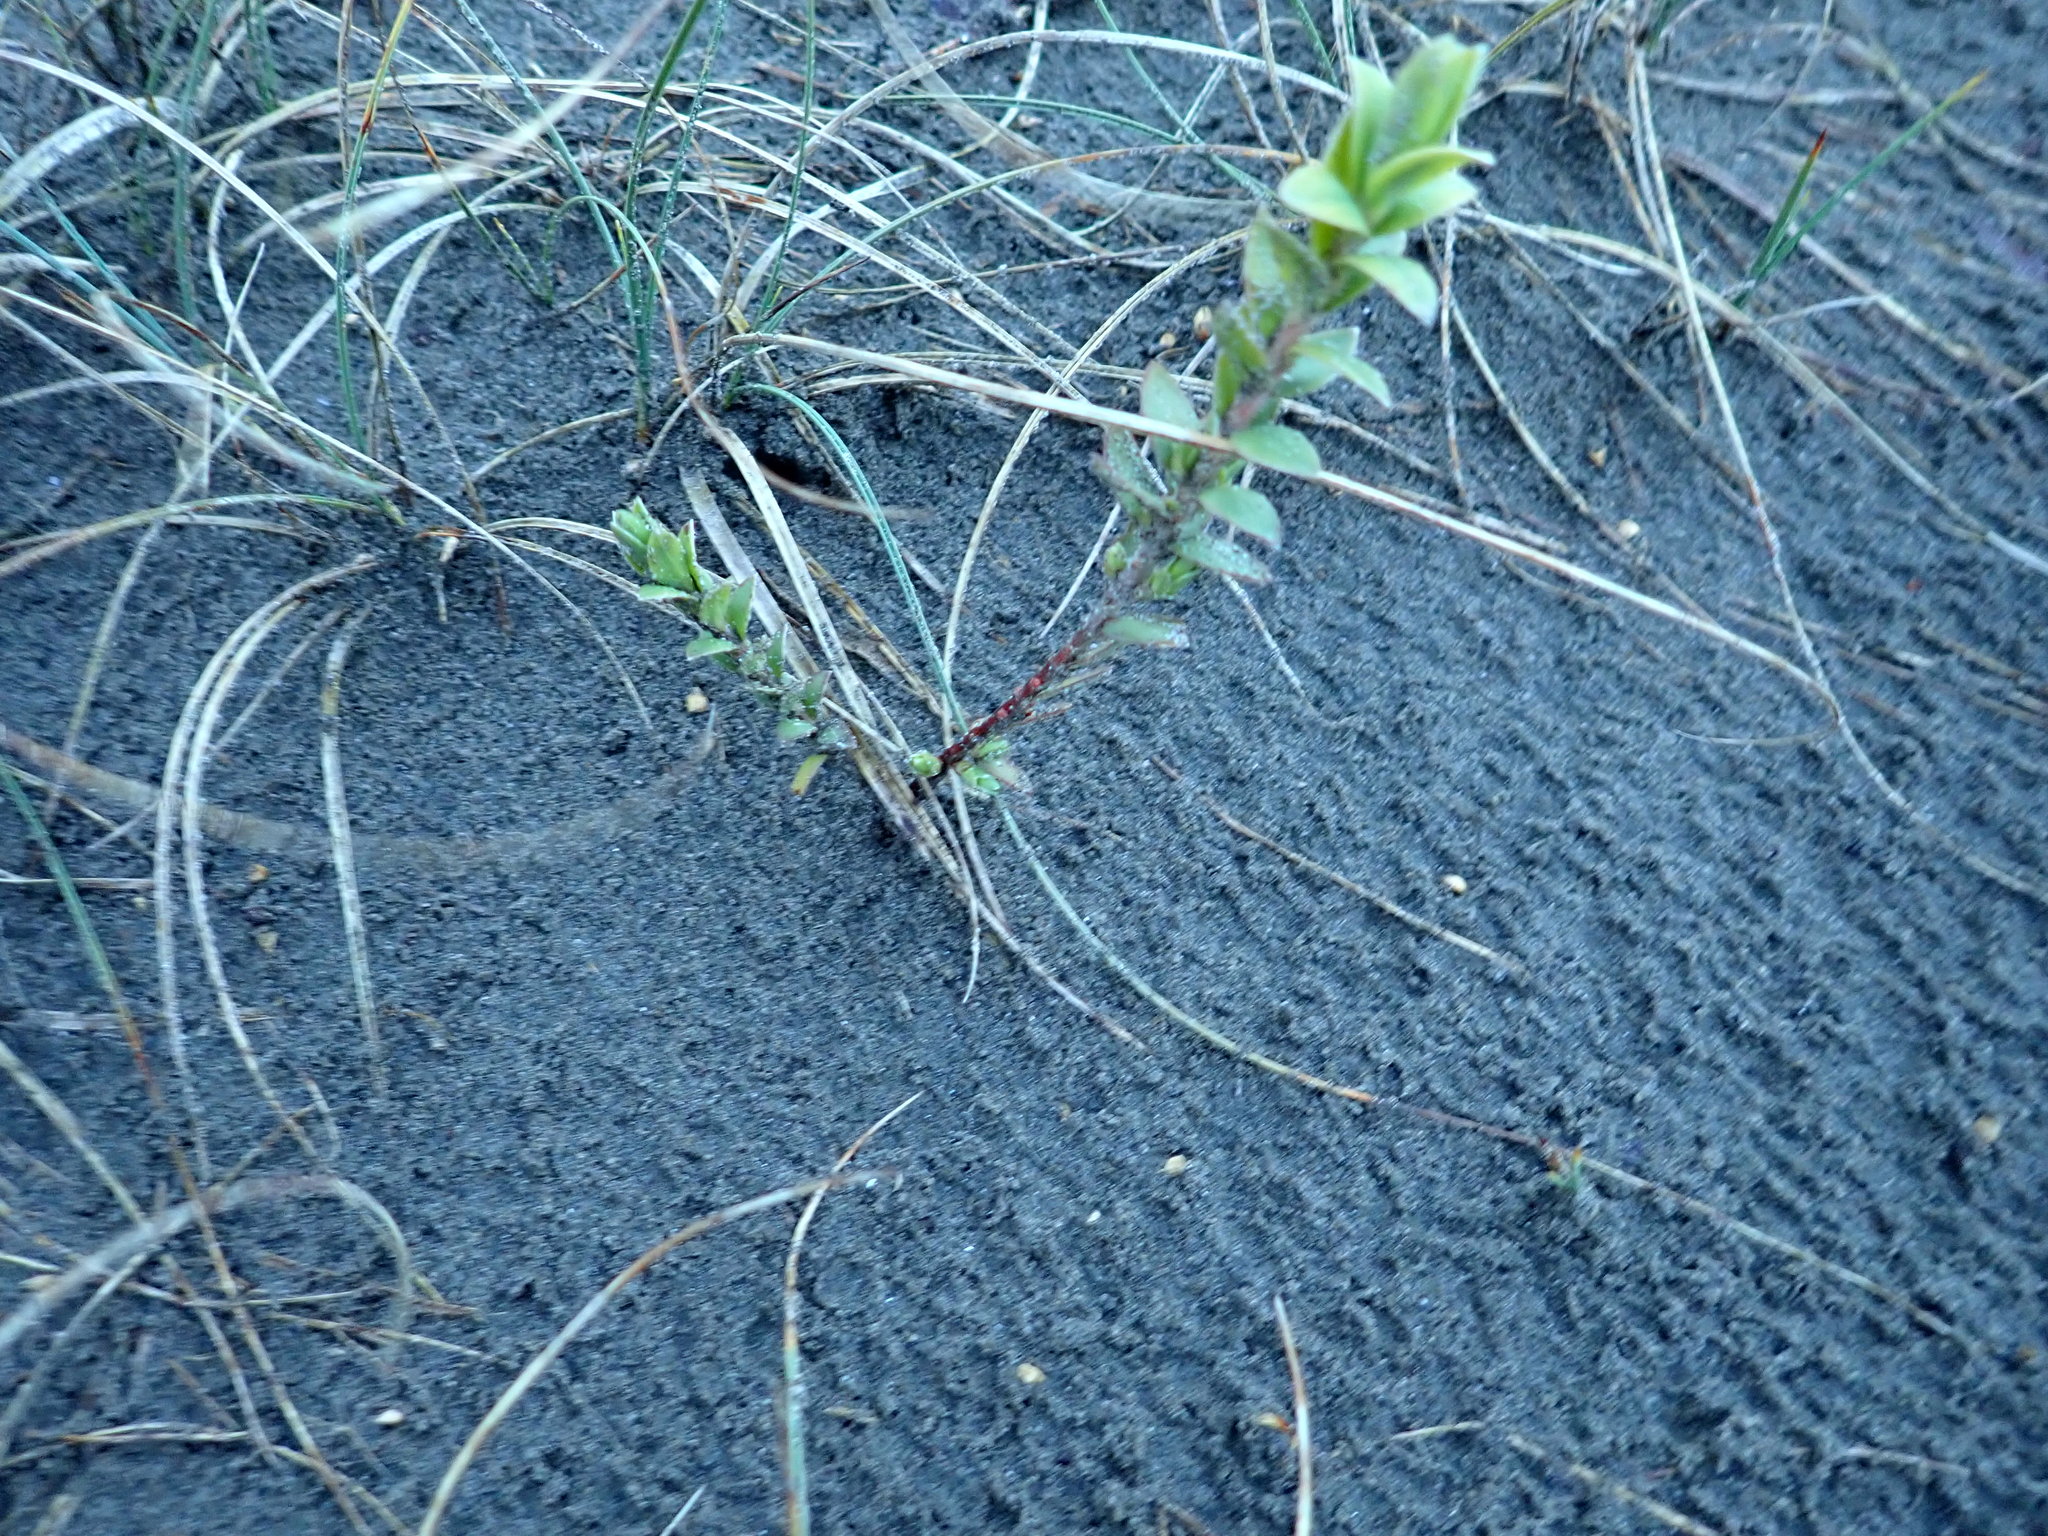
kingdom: Plantae
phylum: Tracheophyta
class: Magnoliopsida
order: Malvales
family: Thymelaeaceae
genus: Pimelea
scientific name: Pimelea villosa
